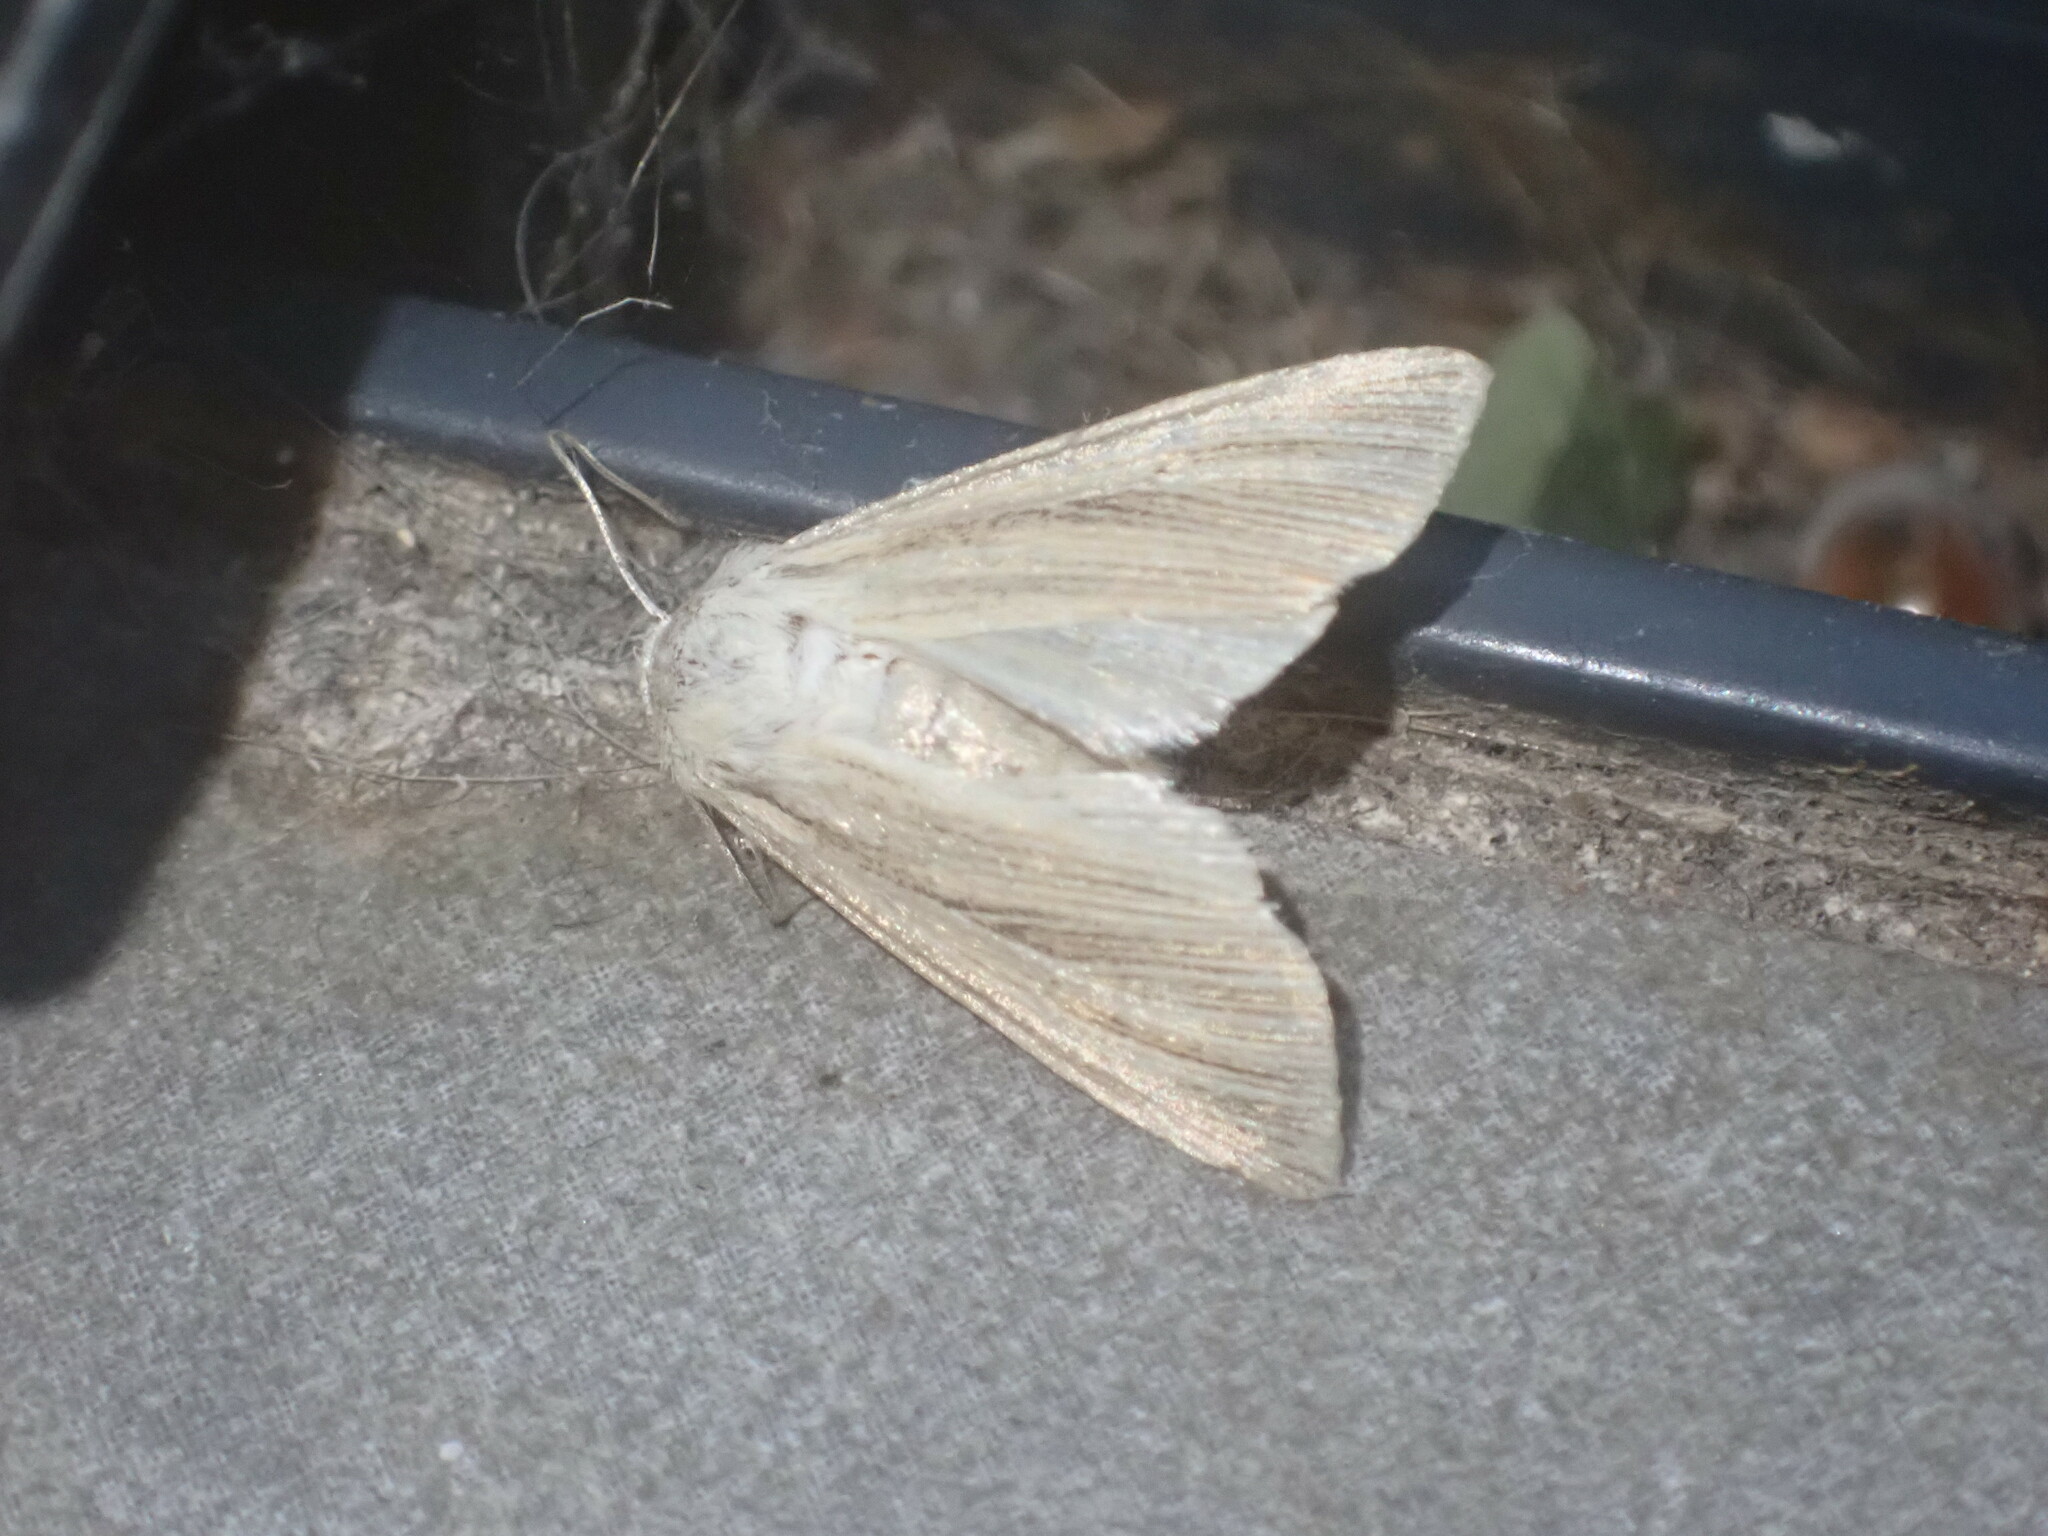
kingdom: Animalia
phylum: Arthropoda
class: Insecta
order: Lepidoptera
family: Noctuidae
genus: Mythimna
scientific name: Mythimna pallens
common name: Common wainscot
